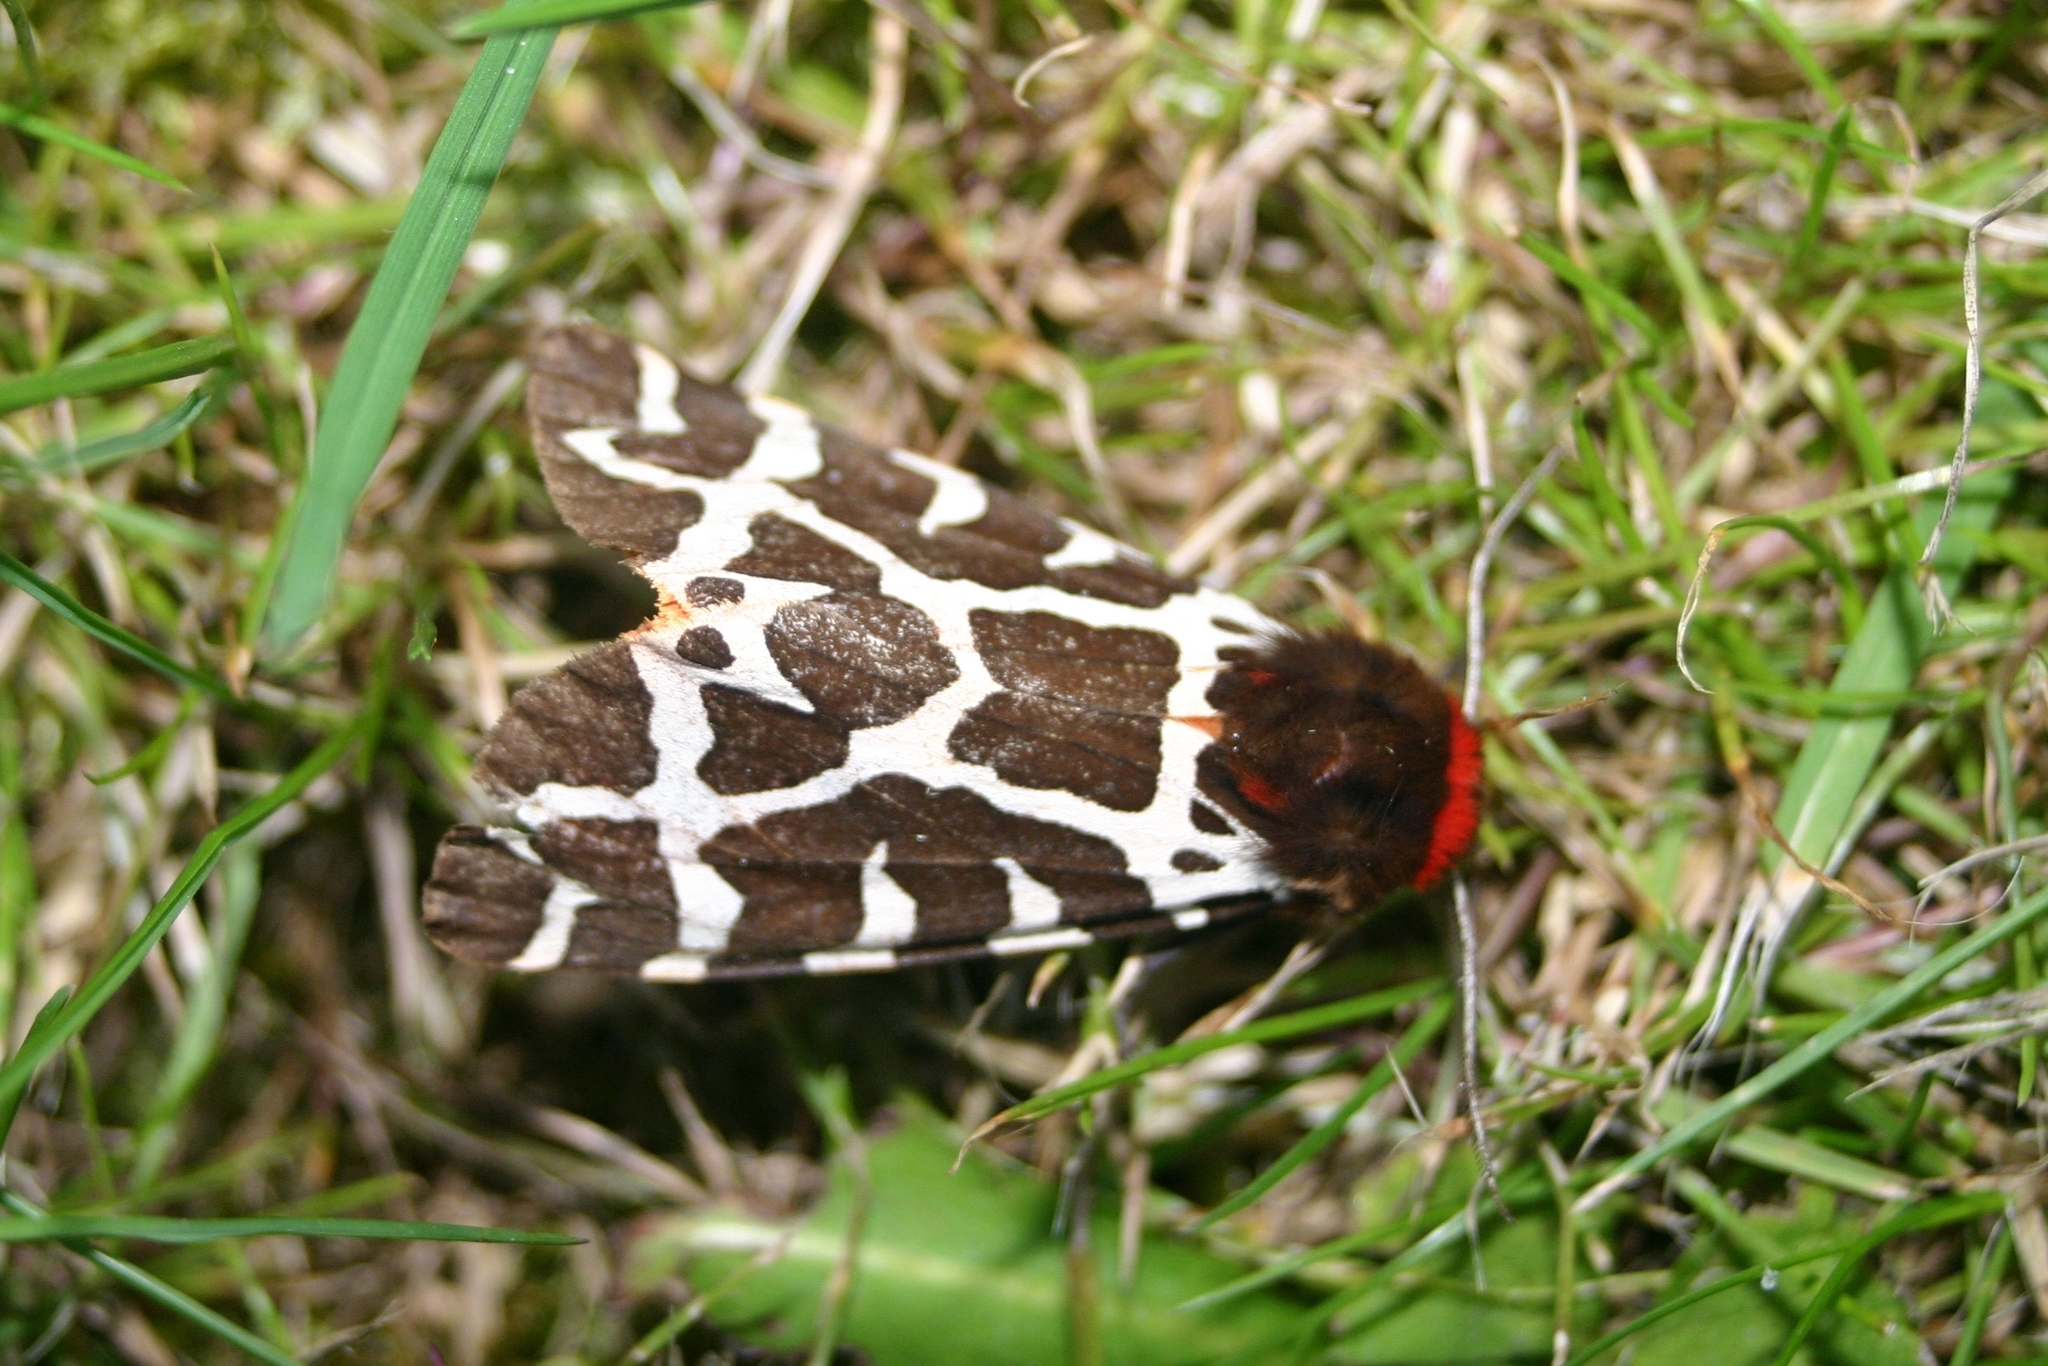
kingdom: Animalia
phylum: Arthropoda
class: Insecta
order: Lepidoptera
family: Erebidae
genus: Arctia
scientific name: Arctia caja
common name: Garden tiger
